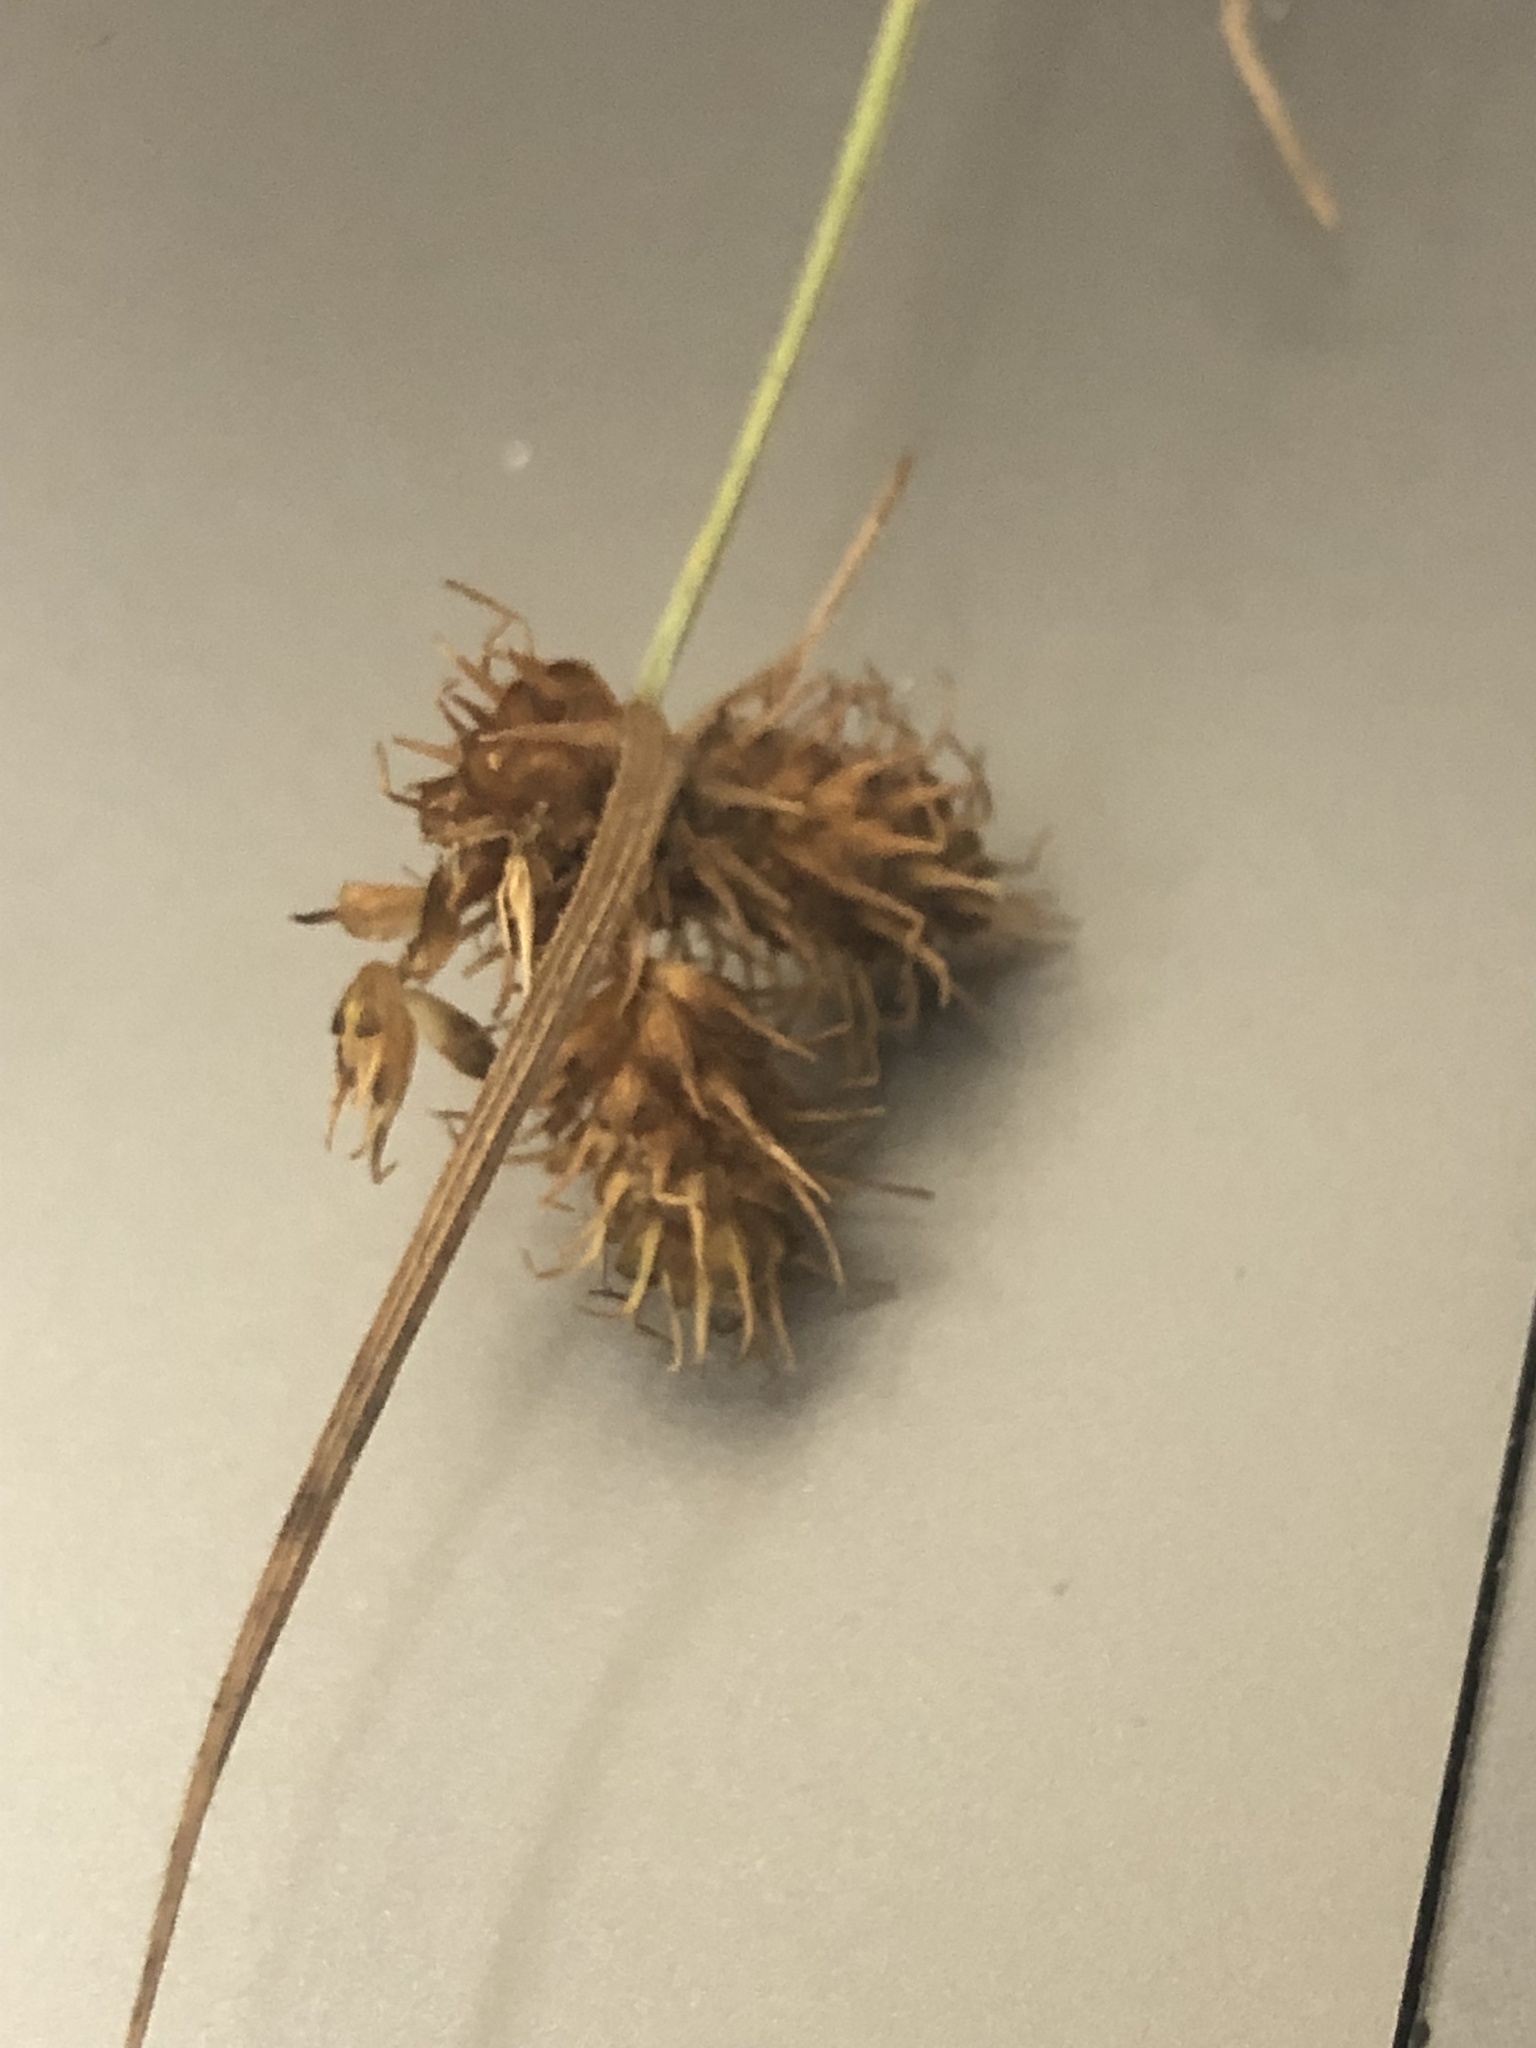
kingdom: Plantae
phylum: Tracheophyta
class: Liliopsida
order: Poales
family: Cyperaceae
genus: Fuirena
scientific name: Fuirena squarrosa
